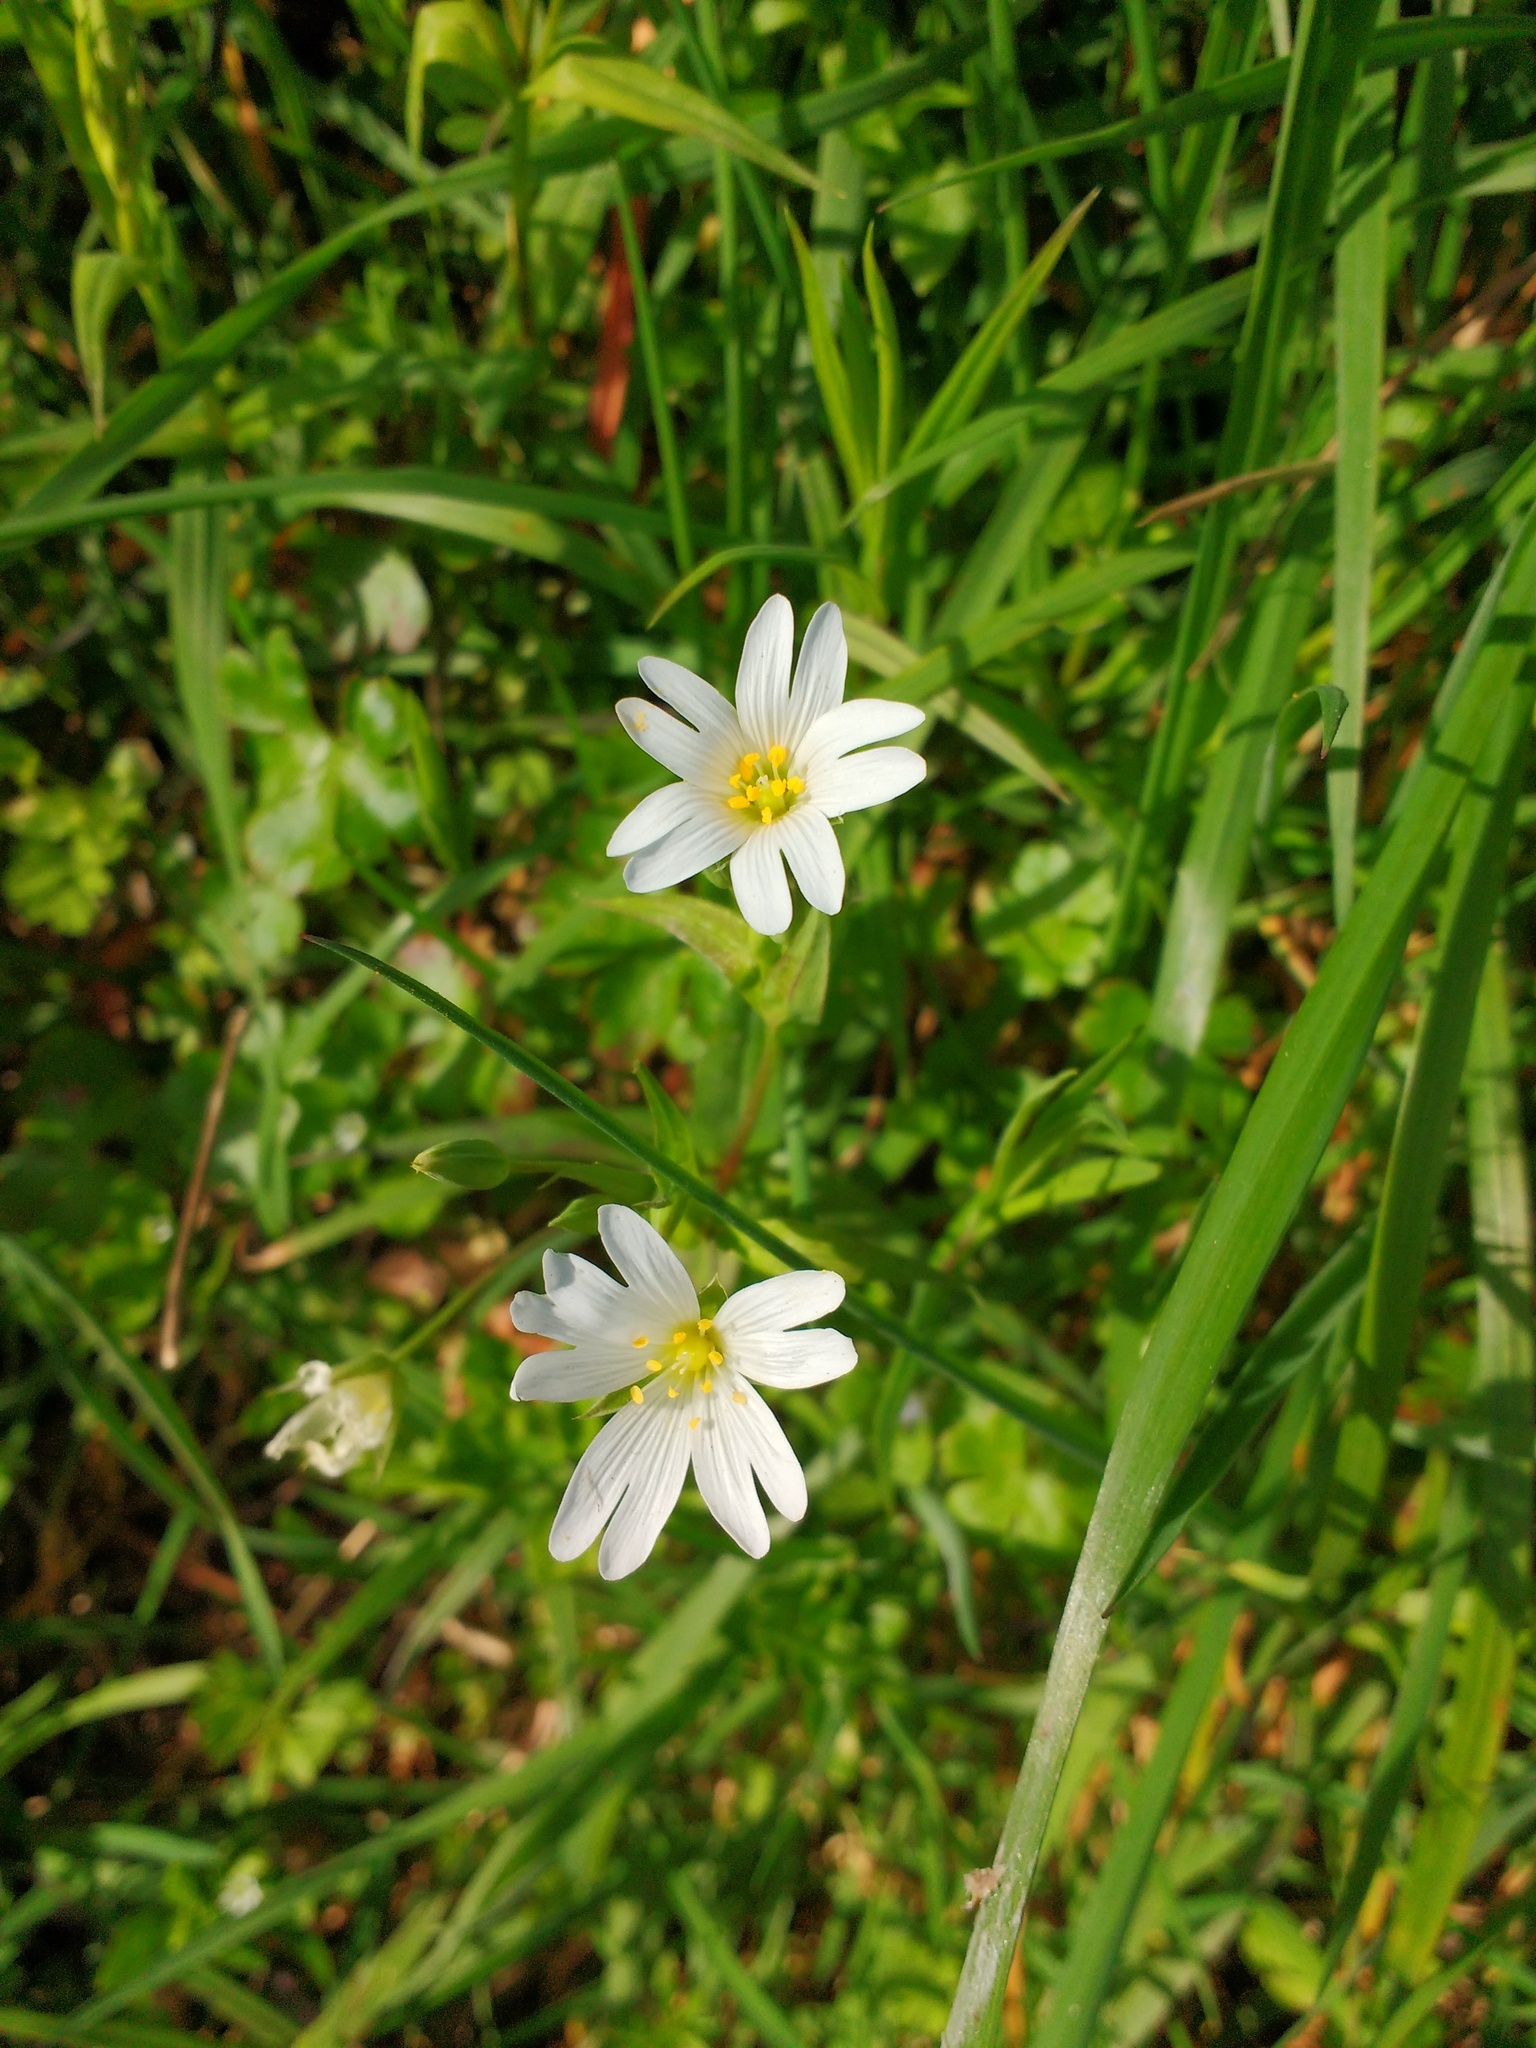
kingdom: Plantae
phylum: Tracheophyta
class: Magnoliopsida
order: Caryophyllales
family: Caryophyllaceae
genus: Rabelera
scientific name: Rabelera holostea
